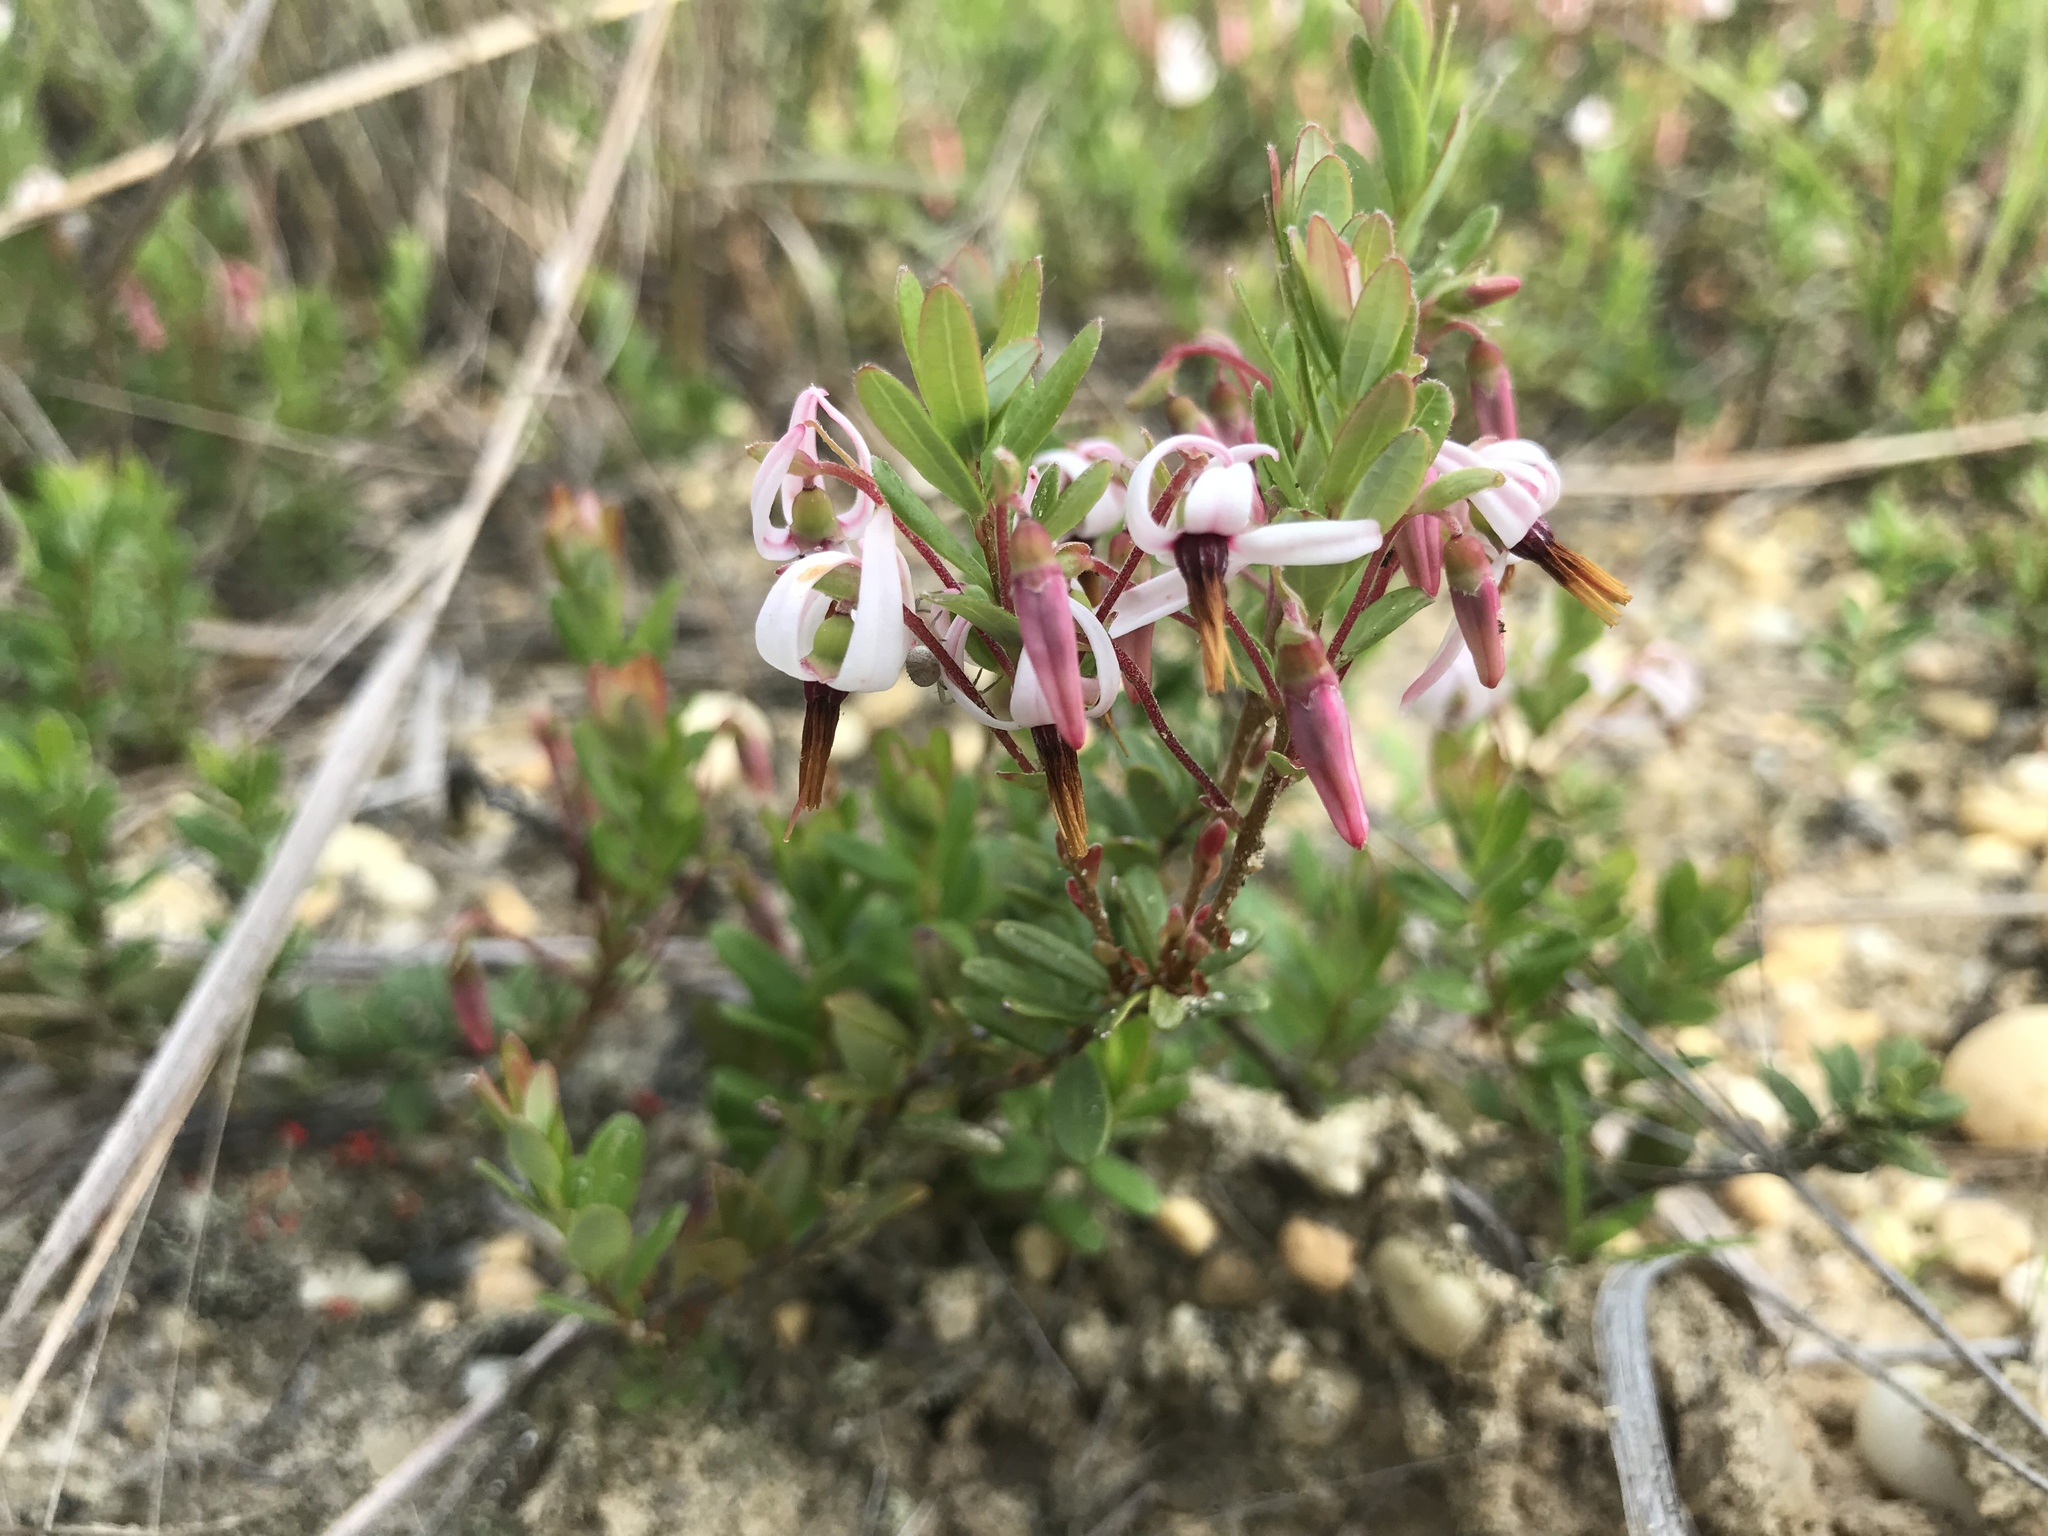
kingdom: Plantae
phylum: Tracheophyta
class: Magnoliopsida
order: Ericales
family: Ericaceae
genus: Vaccinium
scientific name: Vaccinium macrocarpon
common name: American cranberry
